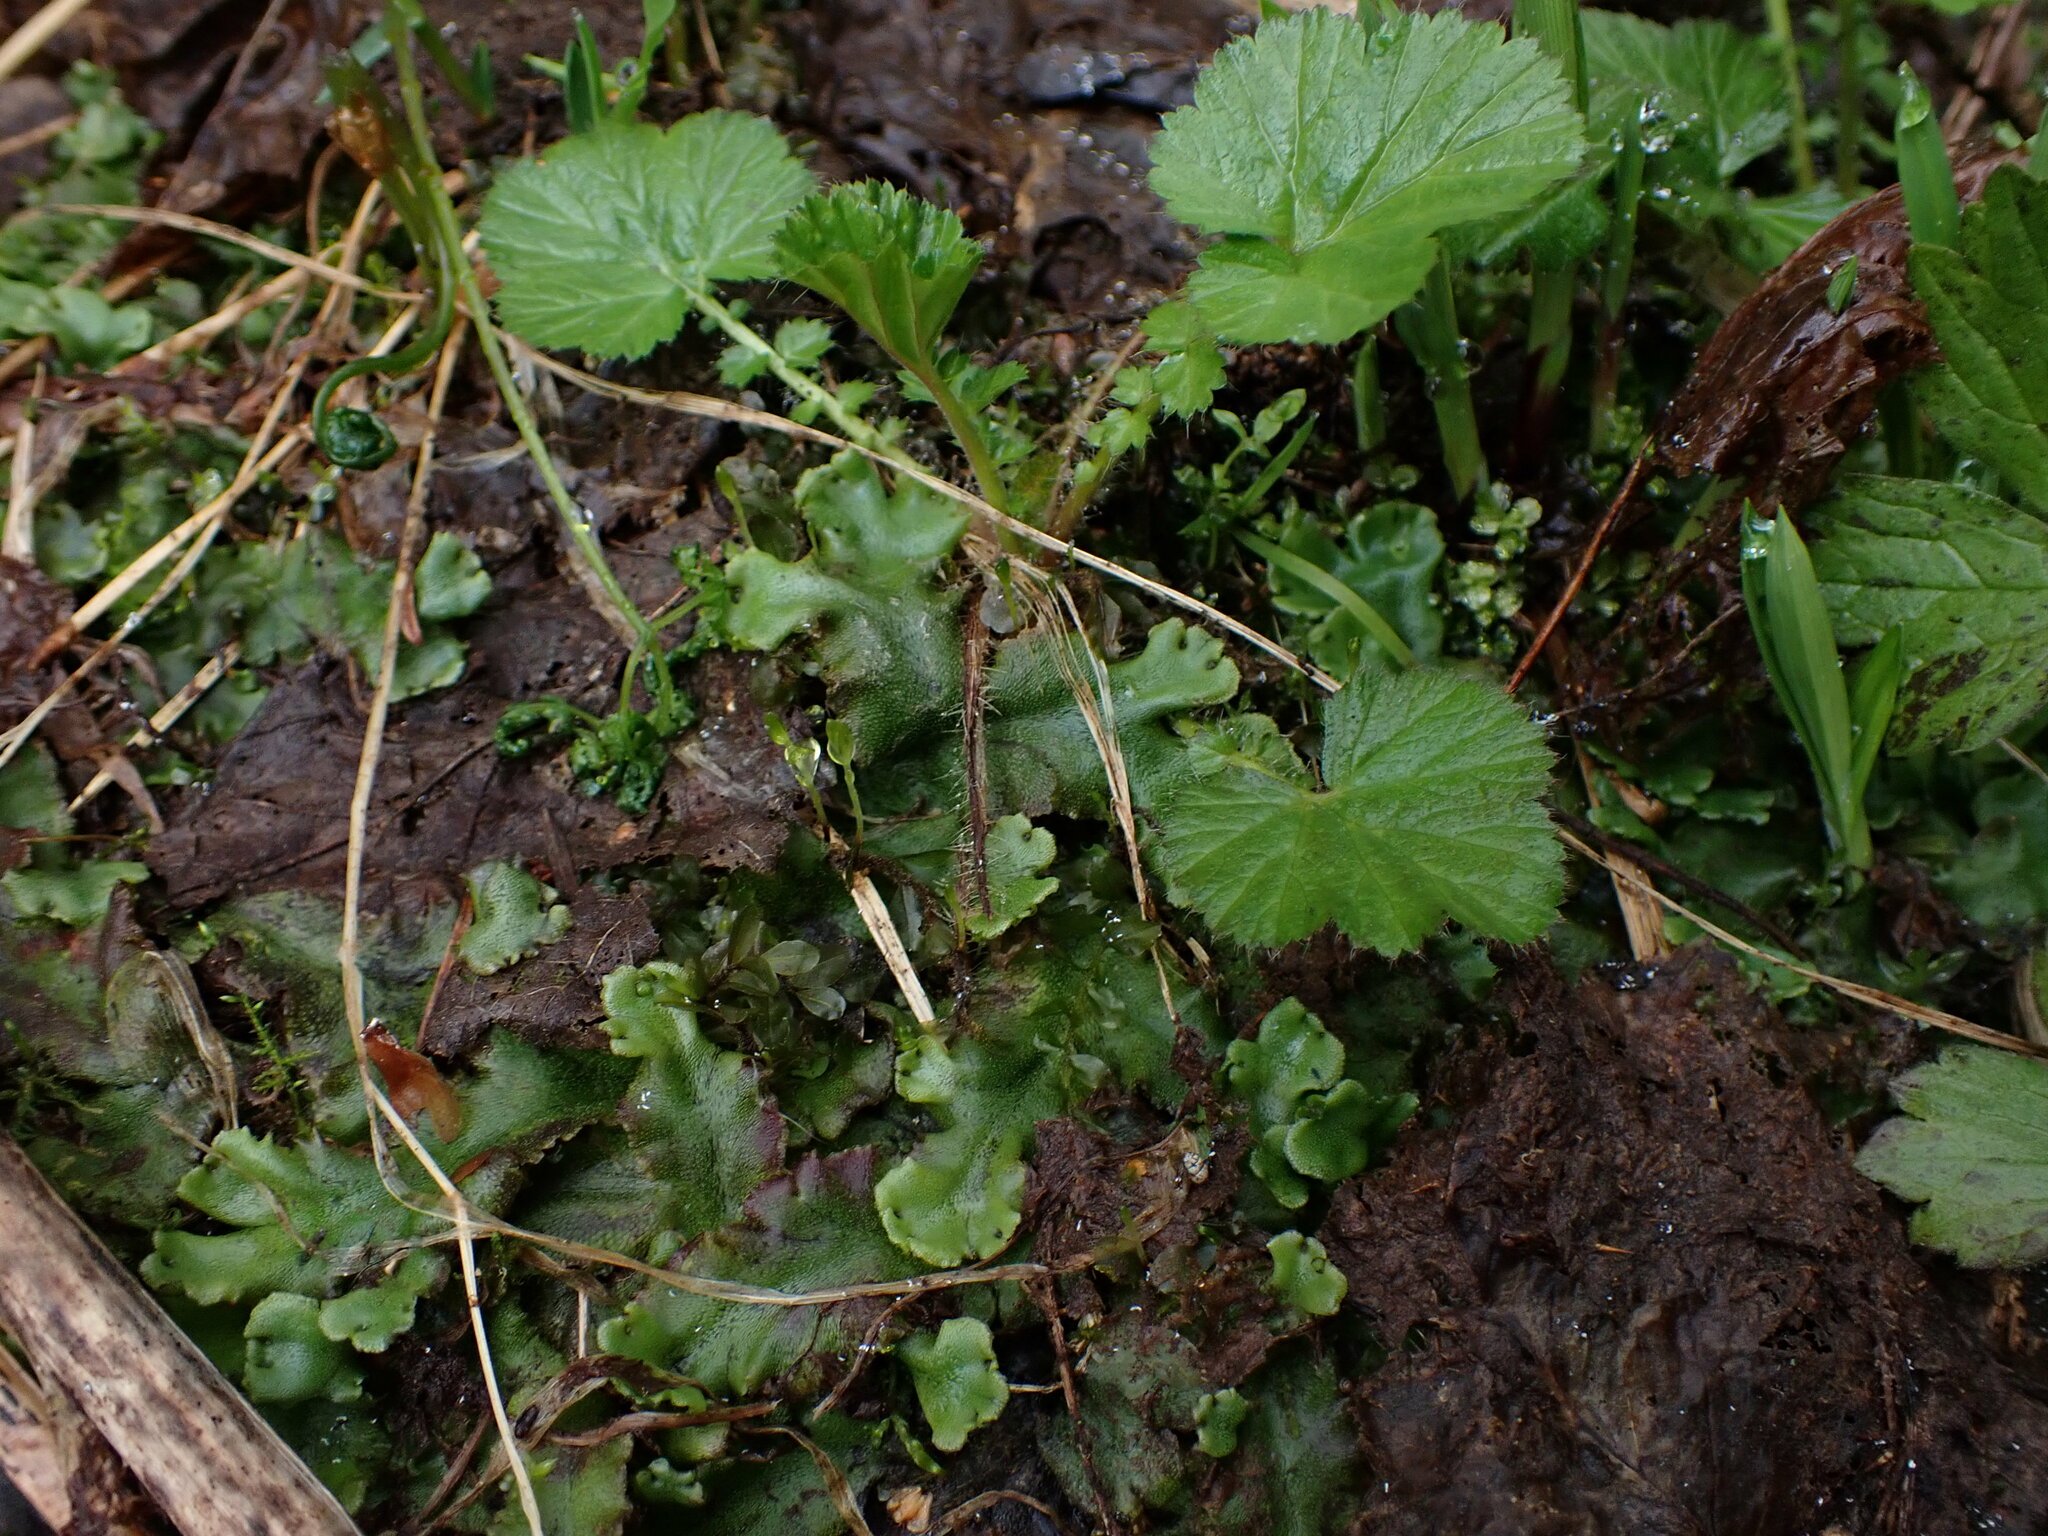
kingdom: Plantae
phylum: Marchantiophyta
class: Marchantiopsida
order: Marchantiales
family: Marchantiaceae
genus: Marchantia
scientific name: Marchantia polymorpha
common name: Common liverwort
